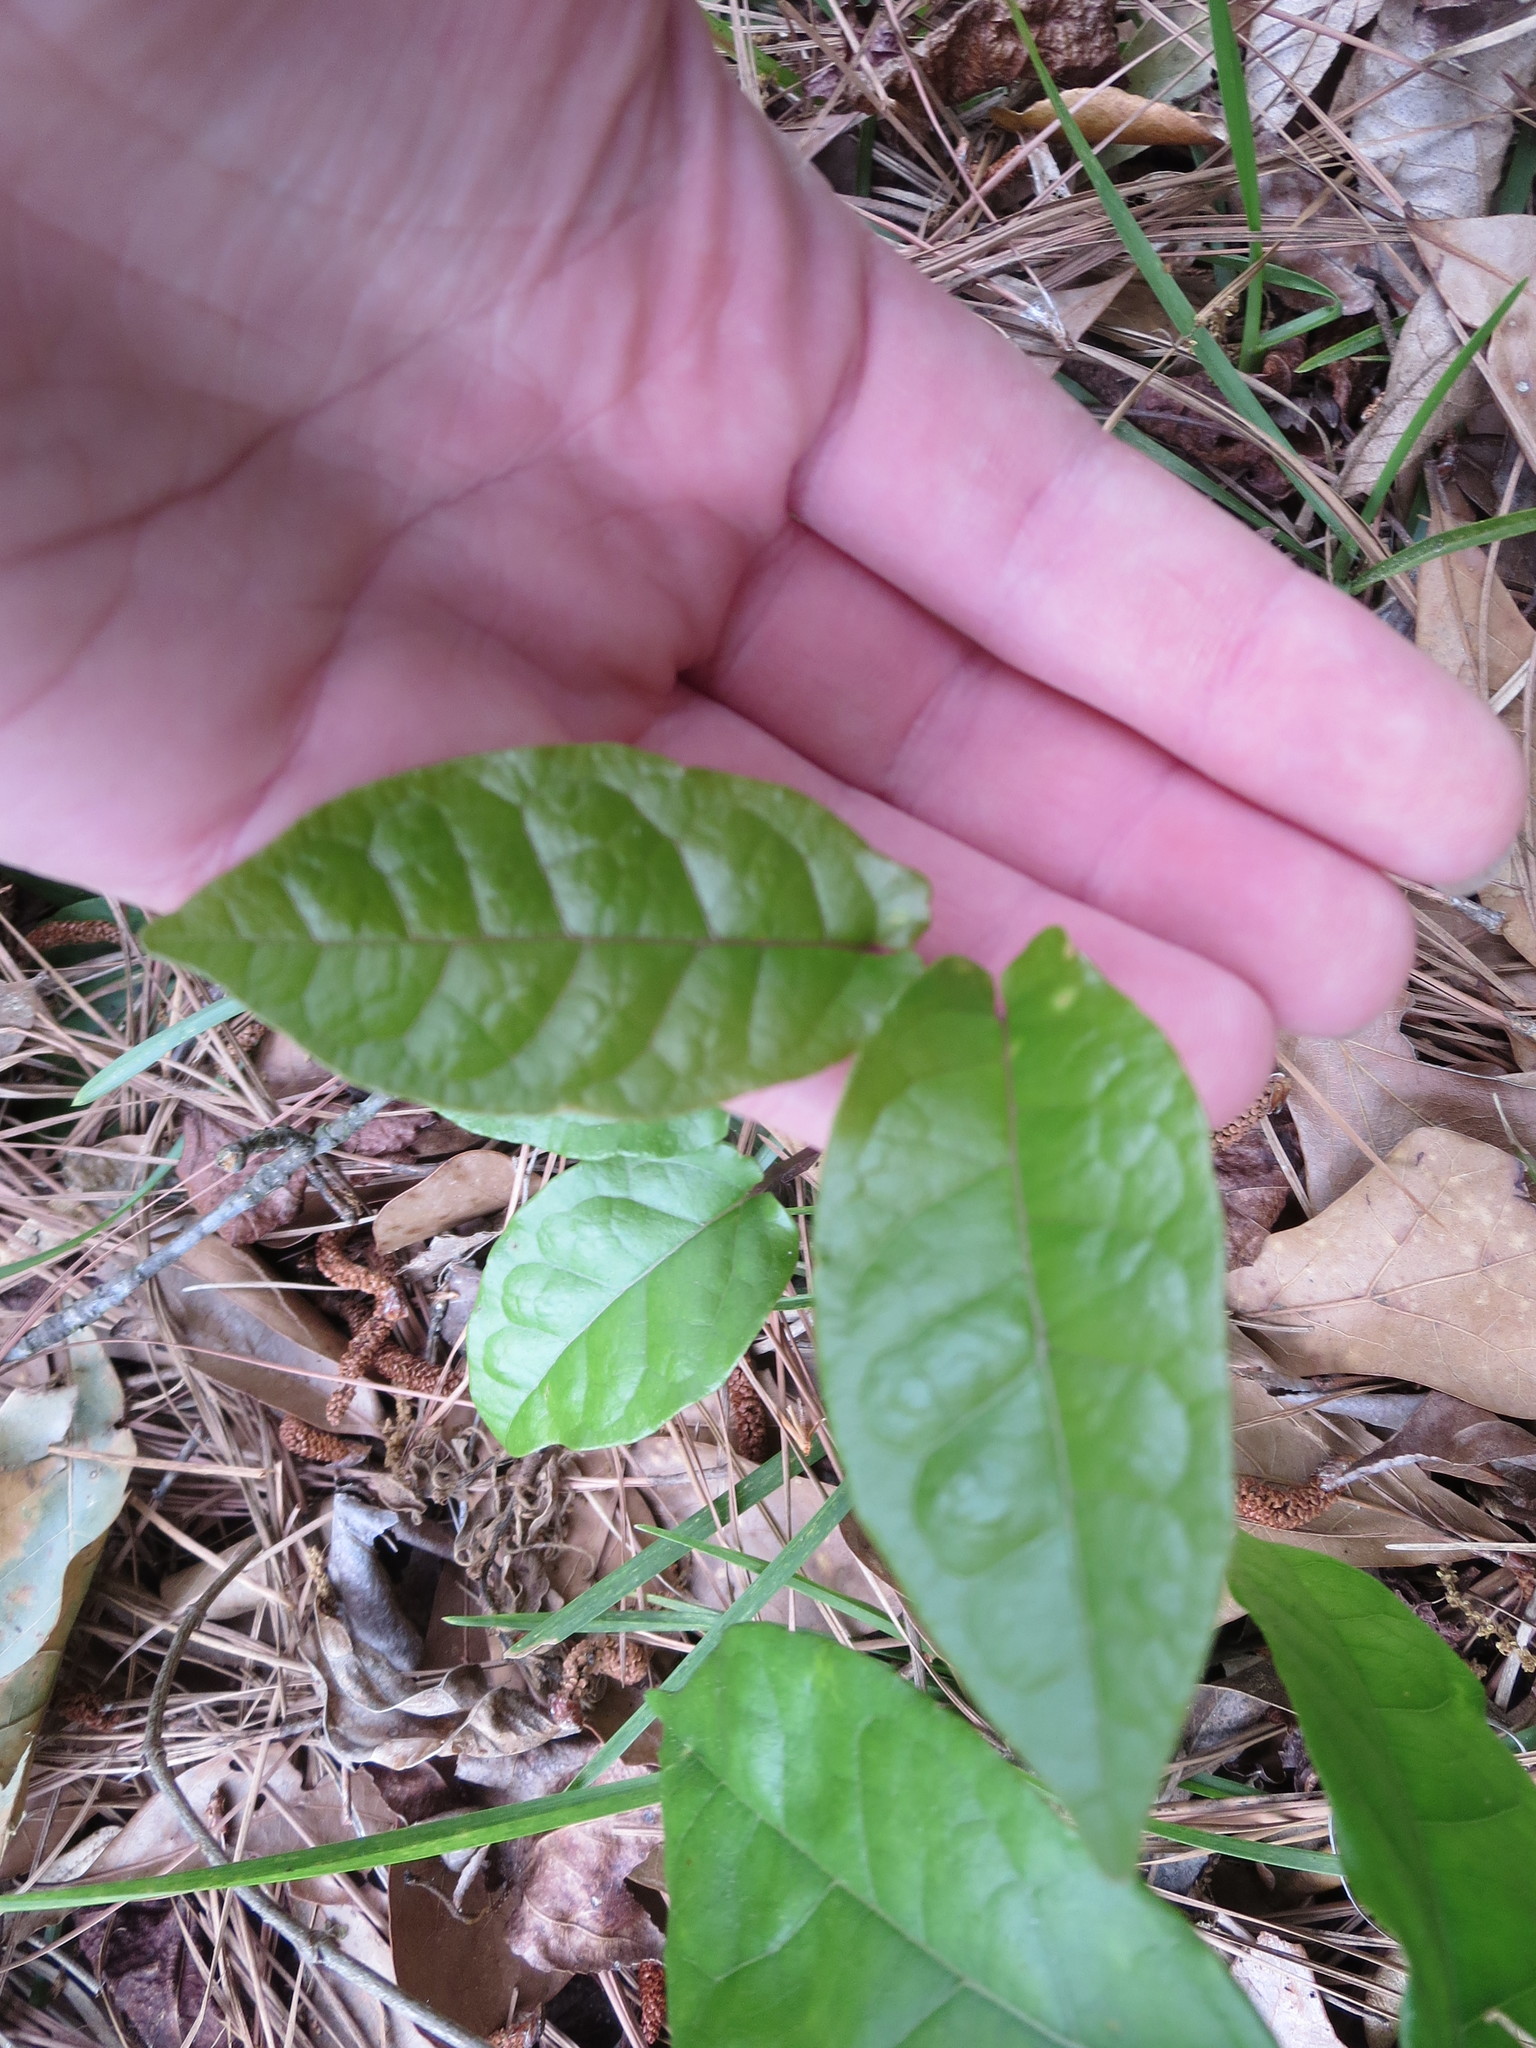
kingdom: Plantae
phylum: Tracheophyta
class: Magnoliopsida
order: Lamiales
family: Bignoniaceae
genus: Bignonia
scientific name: Bignonia capreolata
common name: Crossvine
